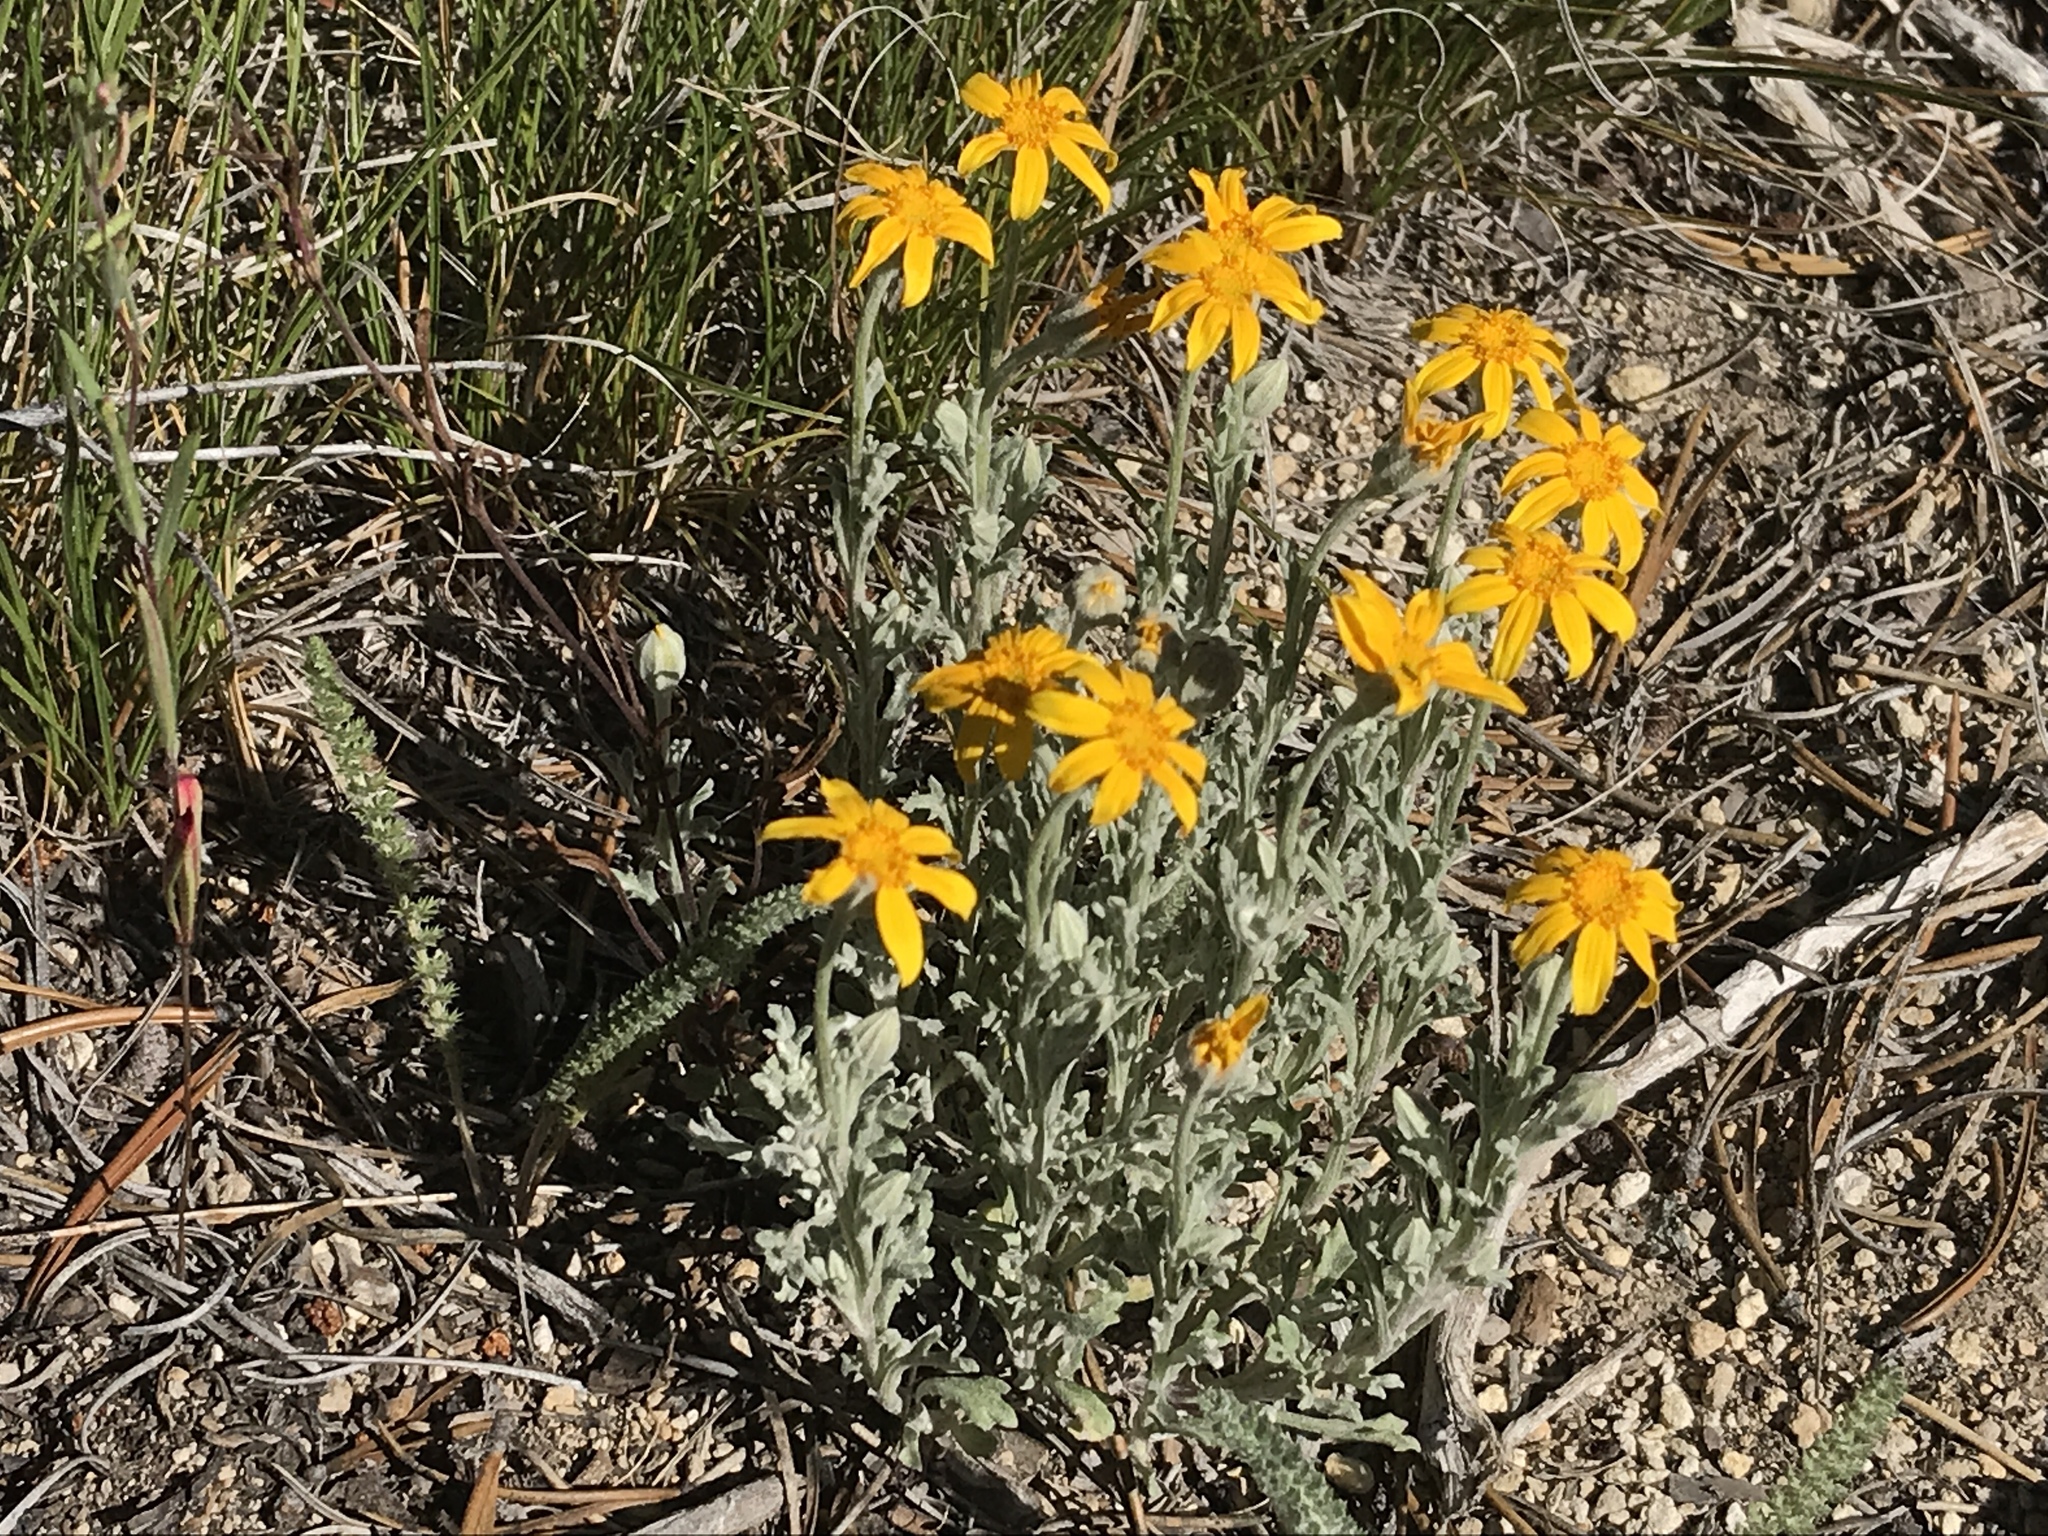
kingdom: Plantae
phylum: Tracheophyta
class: Magnoliopsida
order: Asterales
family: Asteraceae
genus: Eriophyllum
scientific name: Eriophyllum lanatum
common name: Common woolly-sunflower
